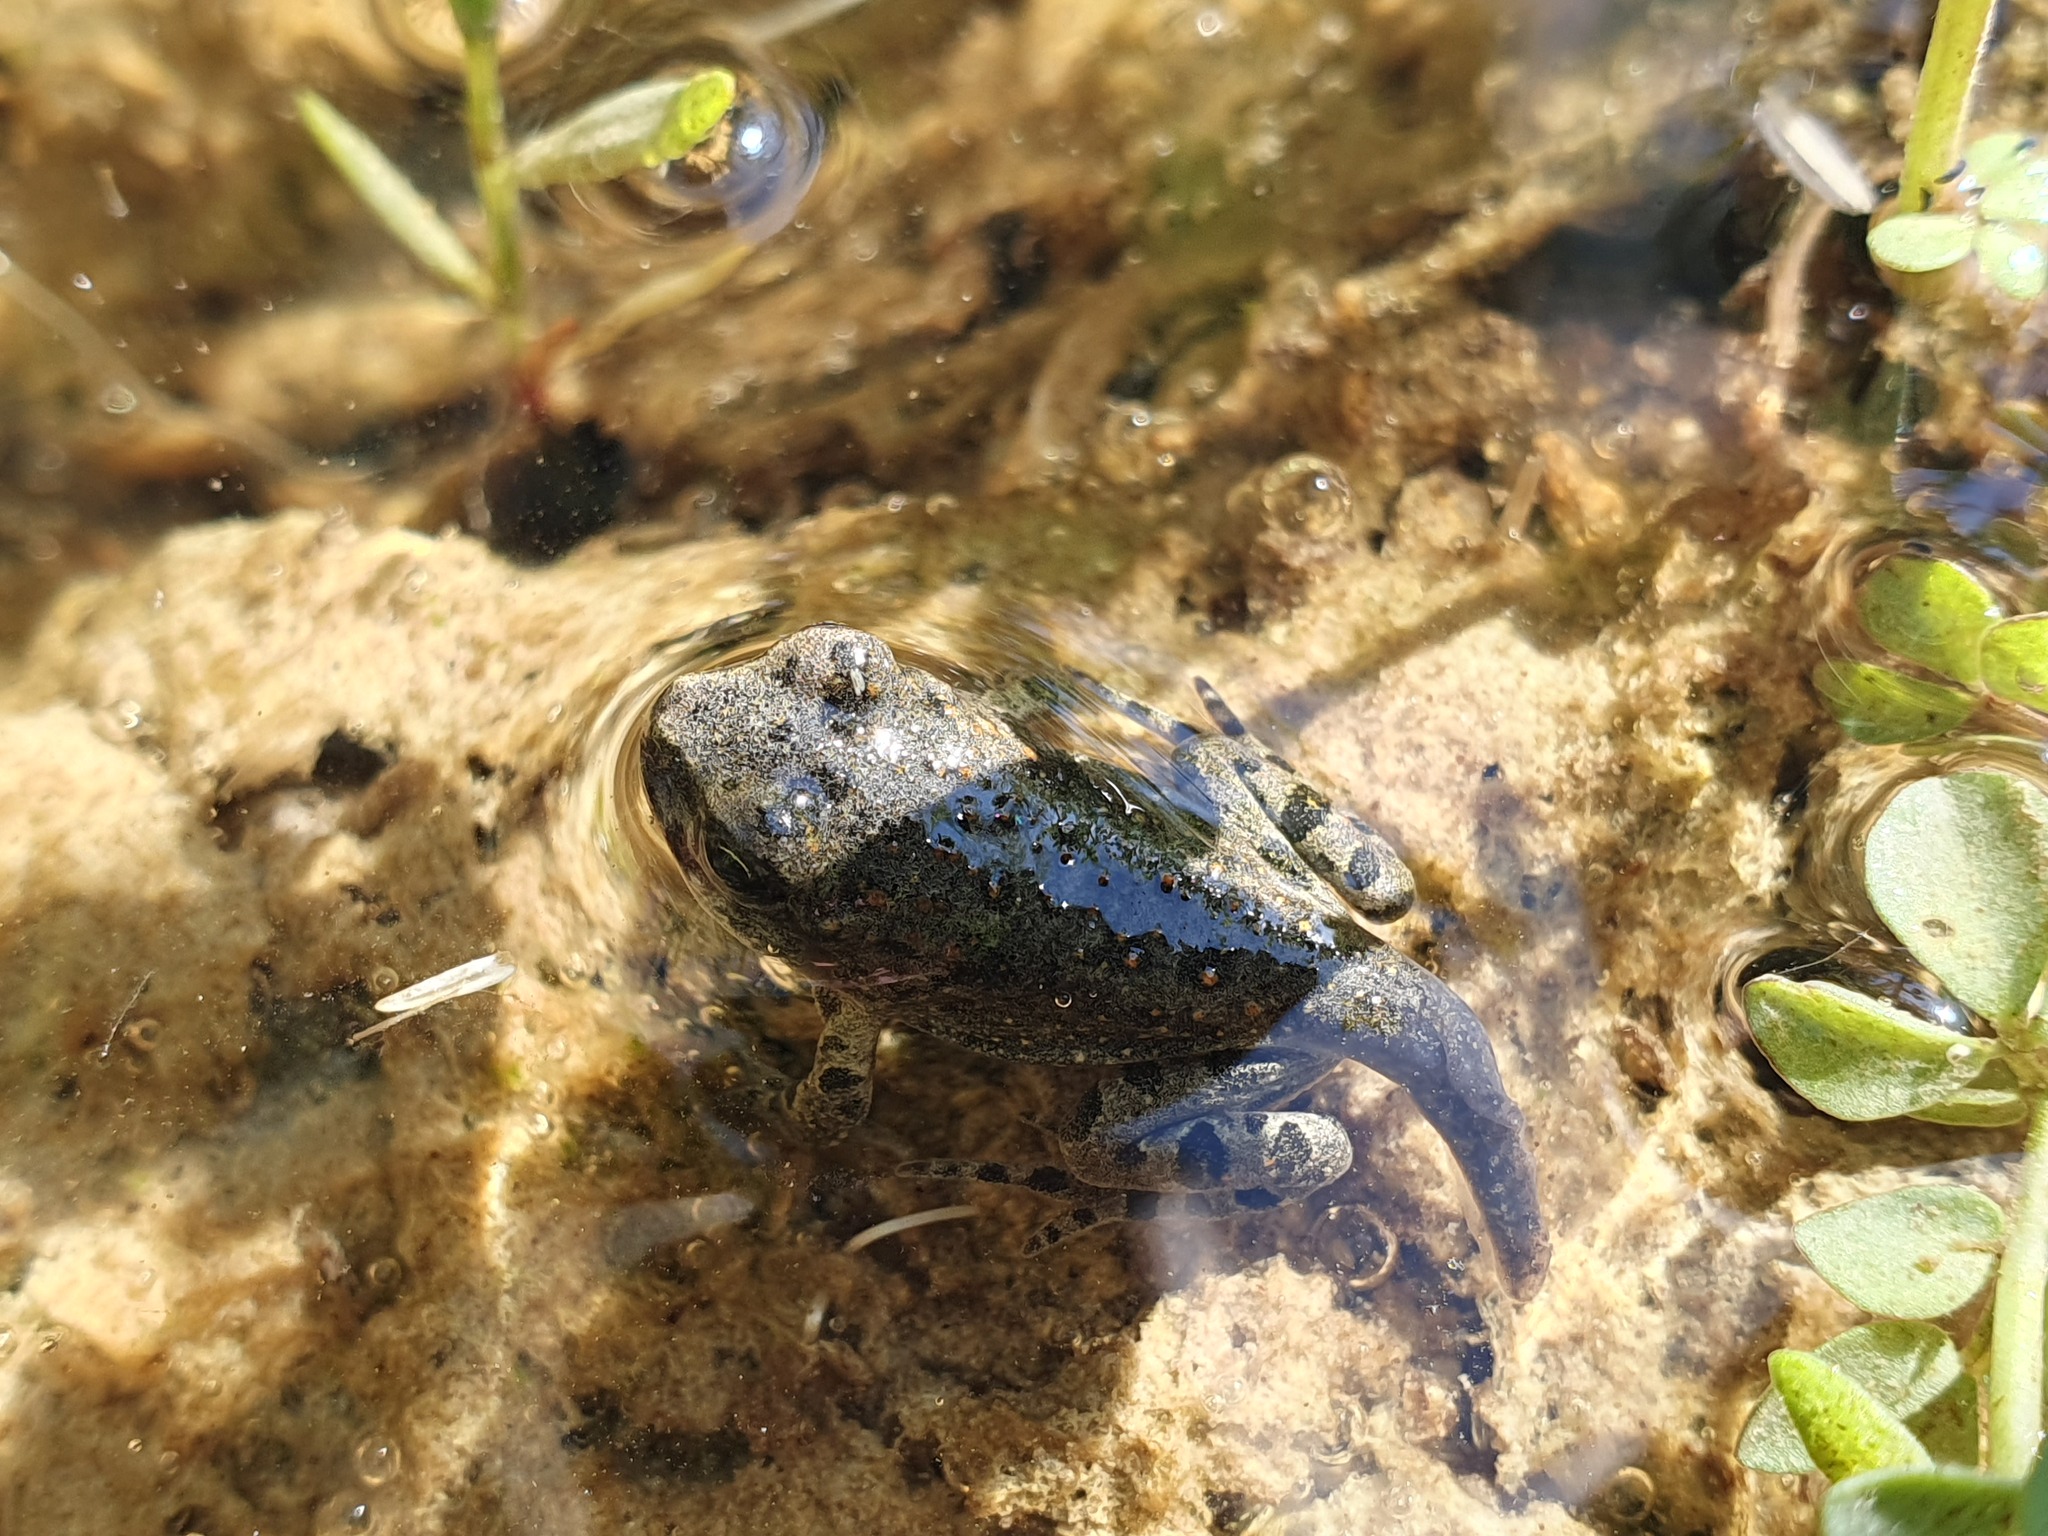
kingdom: Animalia
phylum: Chordata
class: Amphibia
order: Anura
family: Bufonidae
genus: Bufotes
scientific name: Bufotes viridis
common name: European green toad
